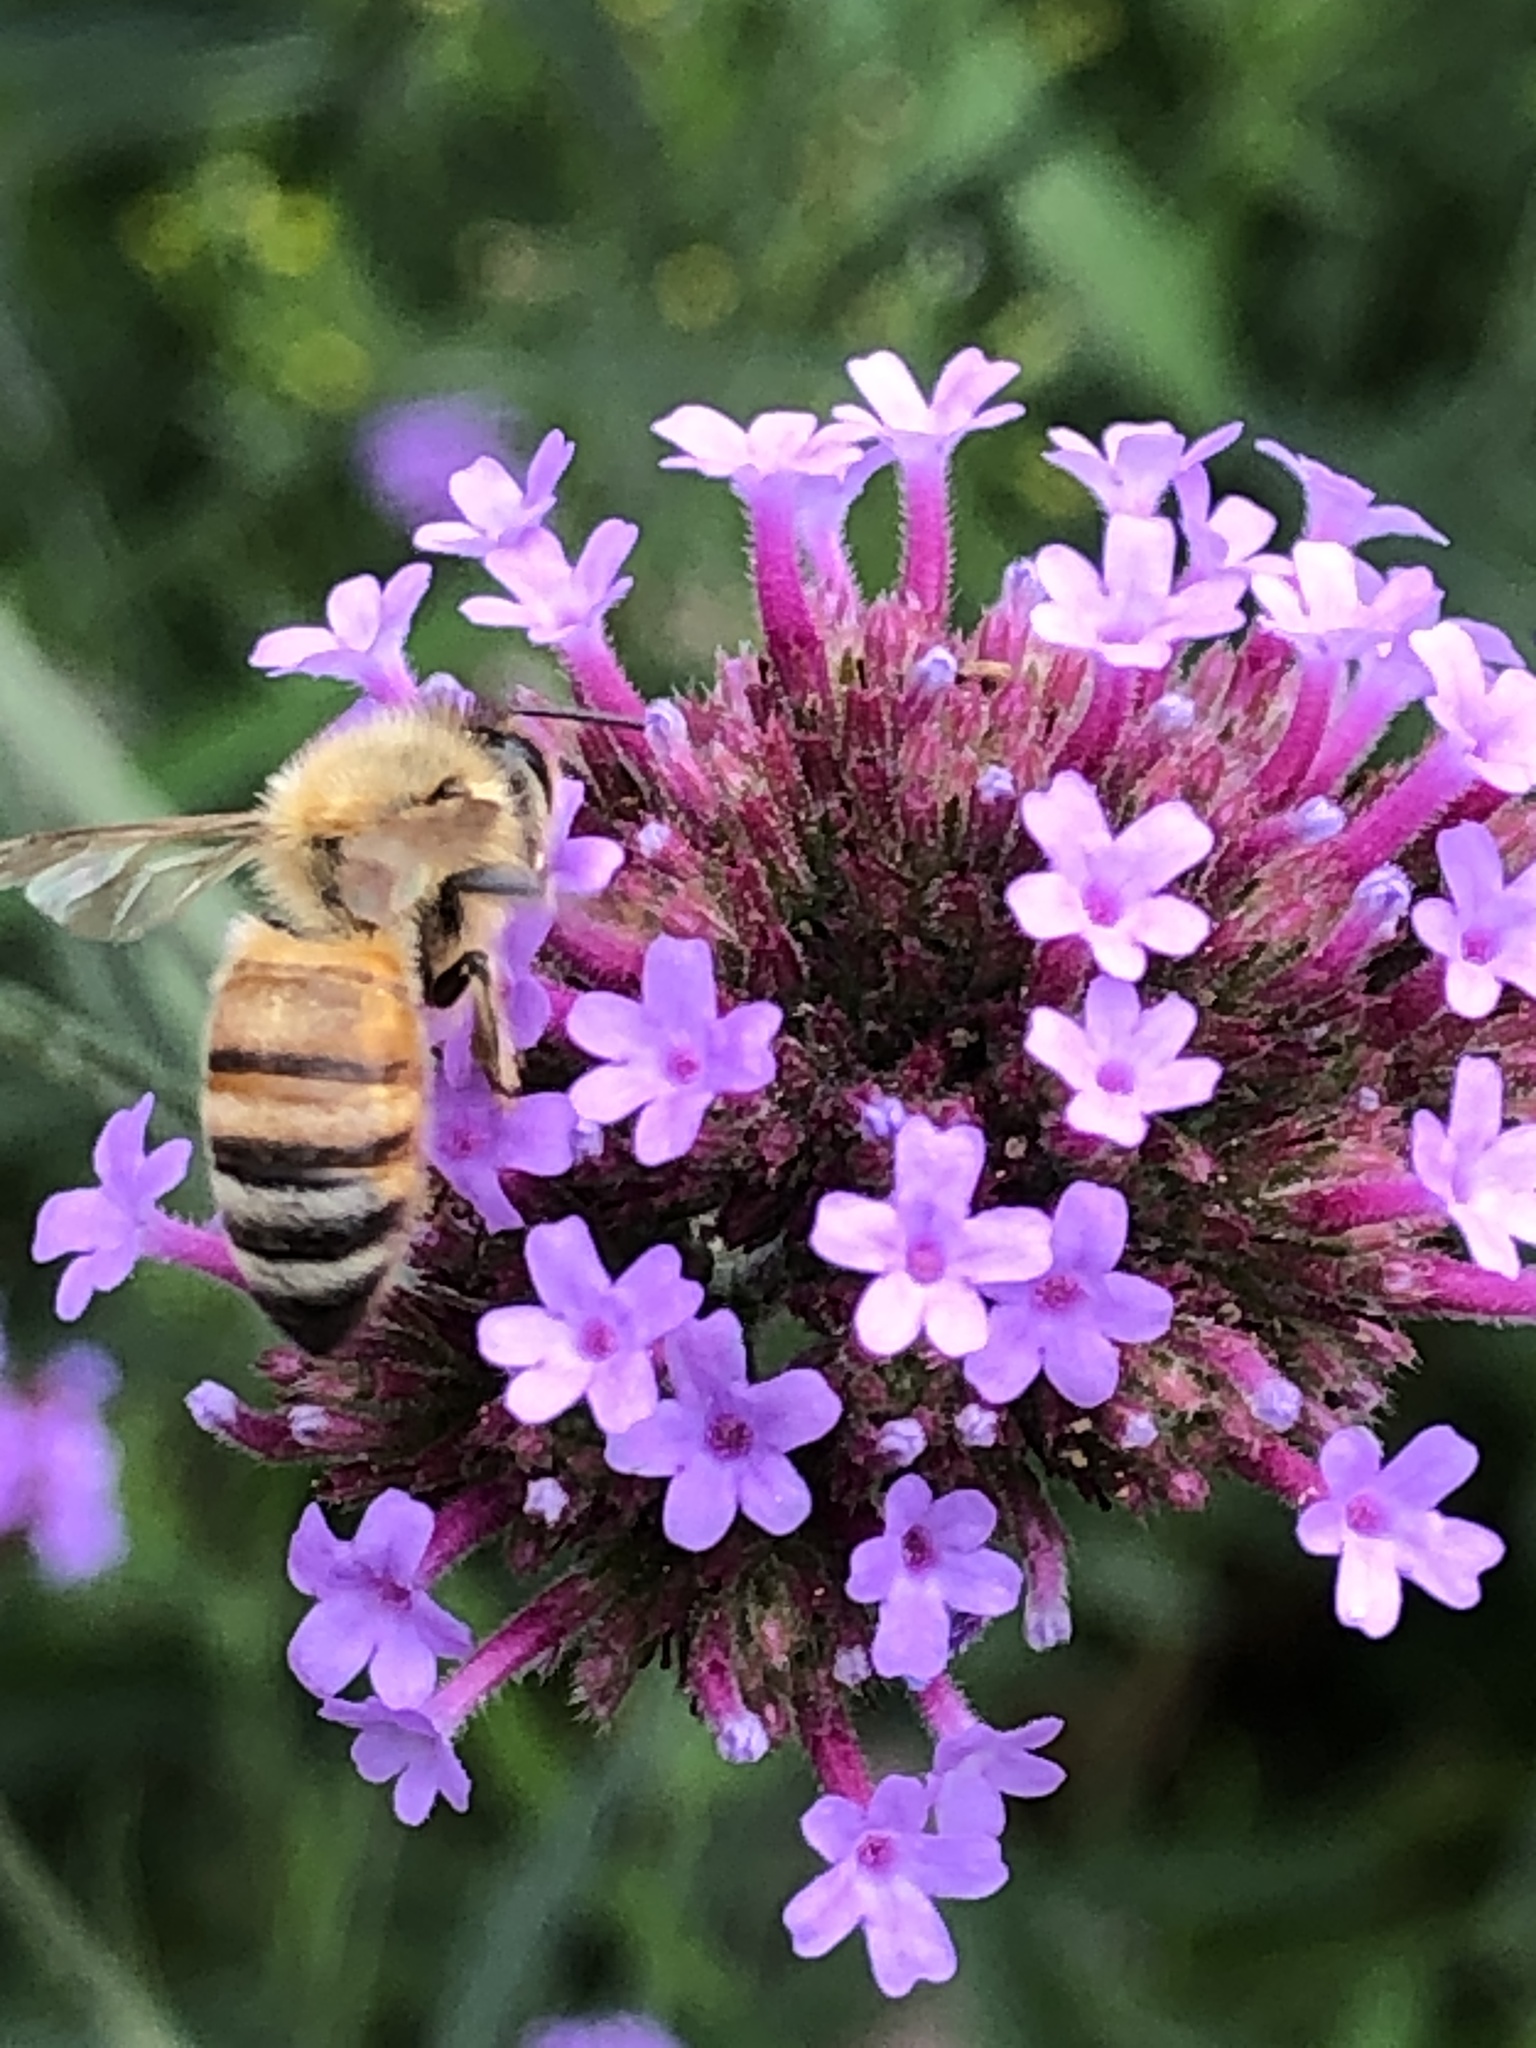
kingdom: Animalia
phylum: Arthropoda
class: Insecta
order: Hymenoptera
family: Apidae
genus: Apis
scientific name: Apis mellifera
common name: Honey bee
